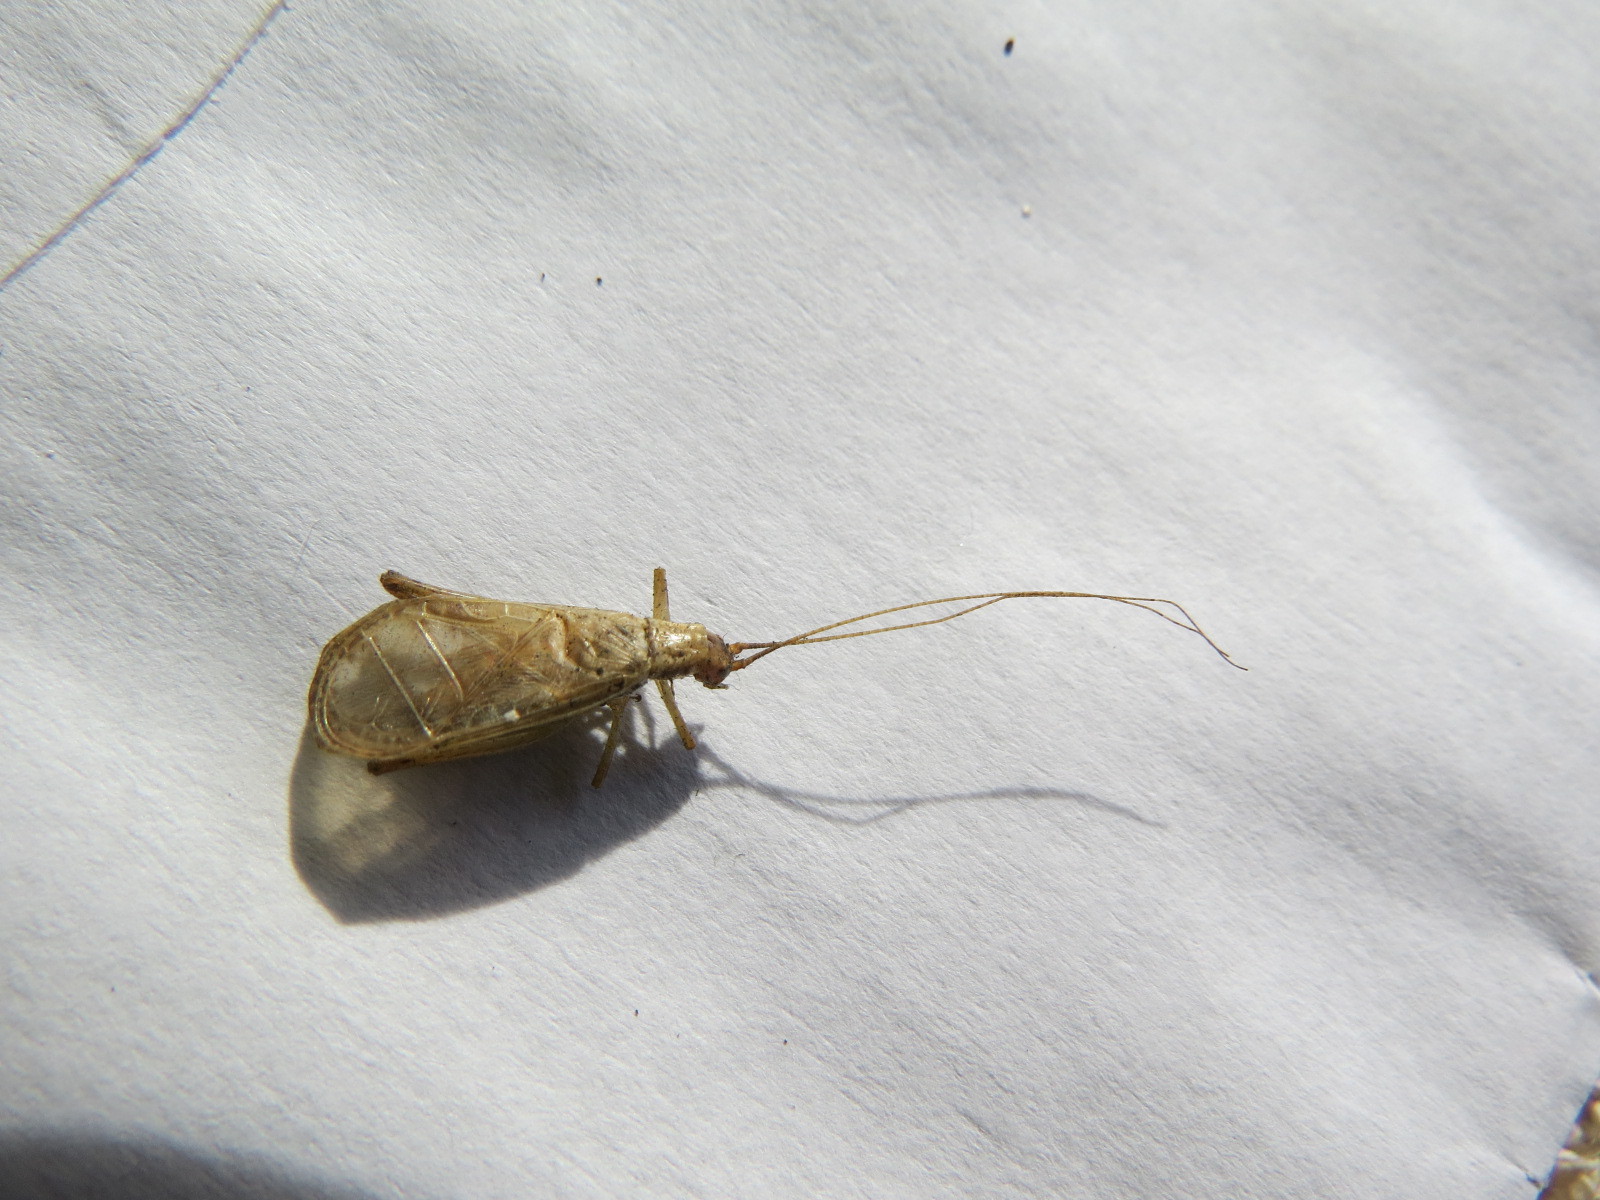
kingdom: Animalia
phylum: Arthropoda
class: Insecta
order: Orthoptera
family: Gryllidae
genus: Oecanthus
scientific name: Oecanthus californicus
